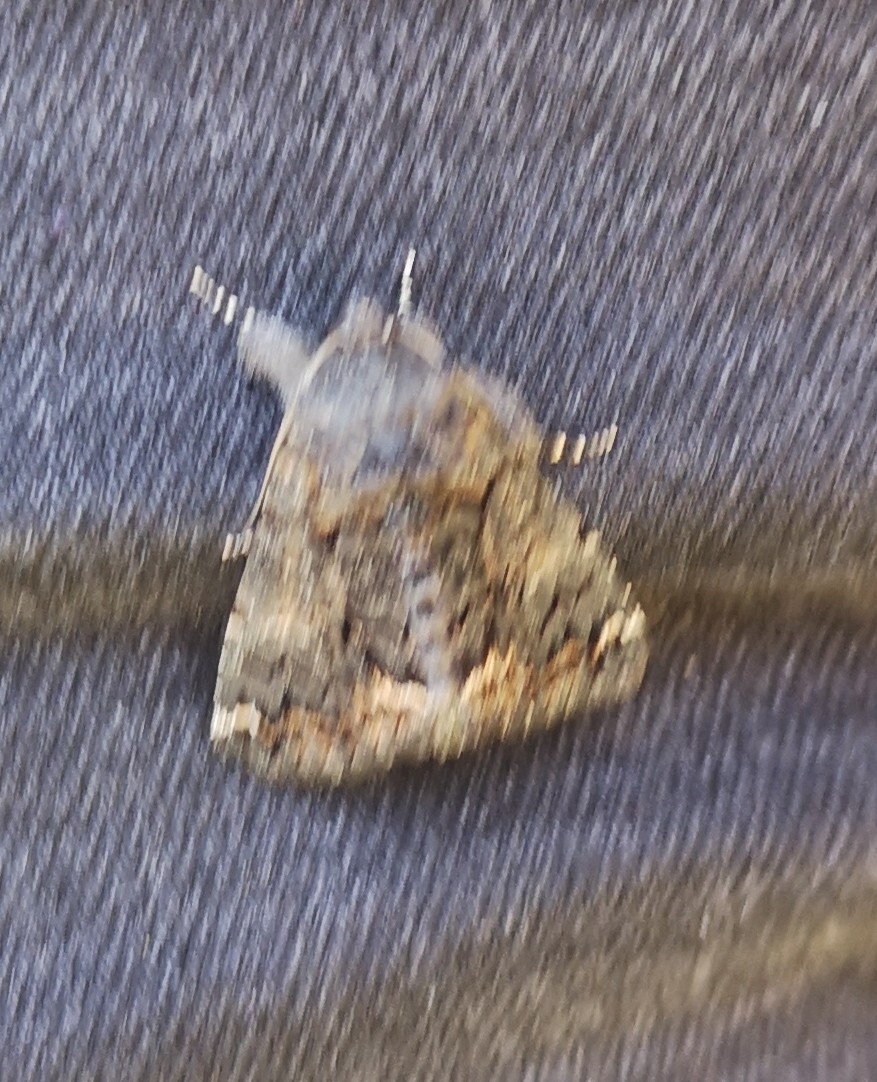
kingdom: Animalia
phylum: Arthropoda
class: Insecta
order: Lepidoptera
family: Erebidae
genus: Catephia
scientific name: Catephia alchymista
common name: Alchymist
